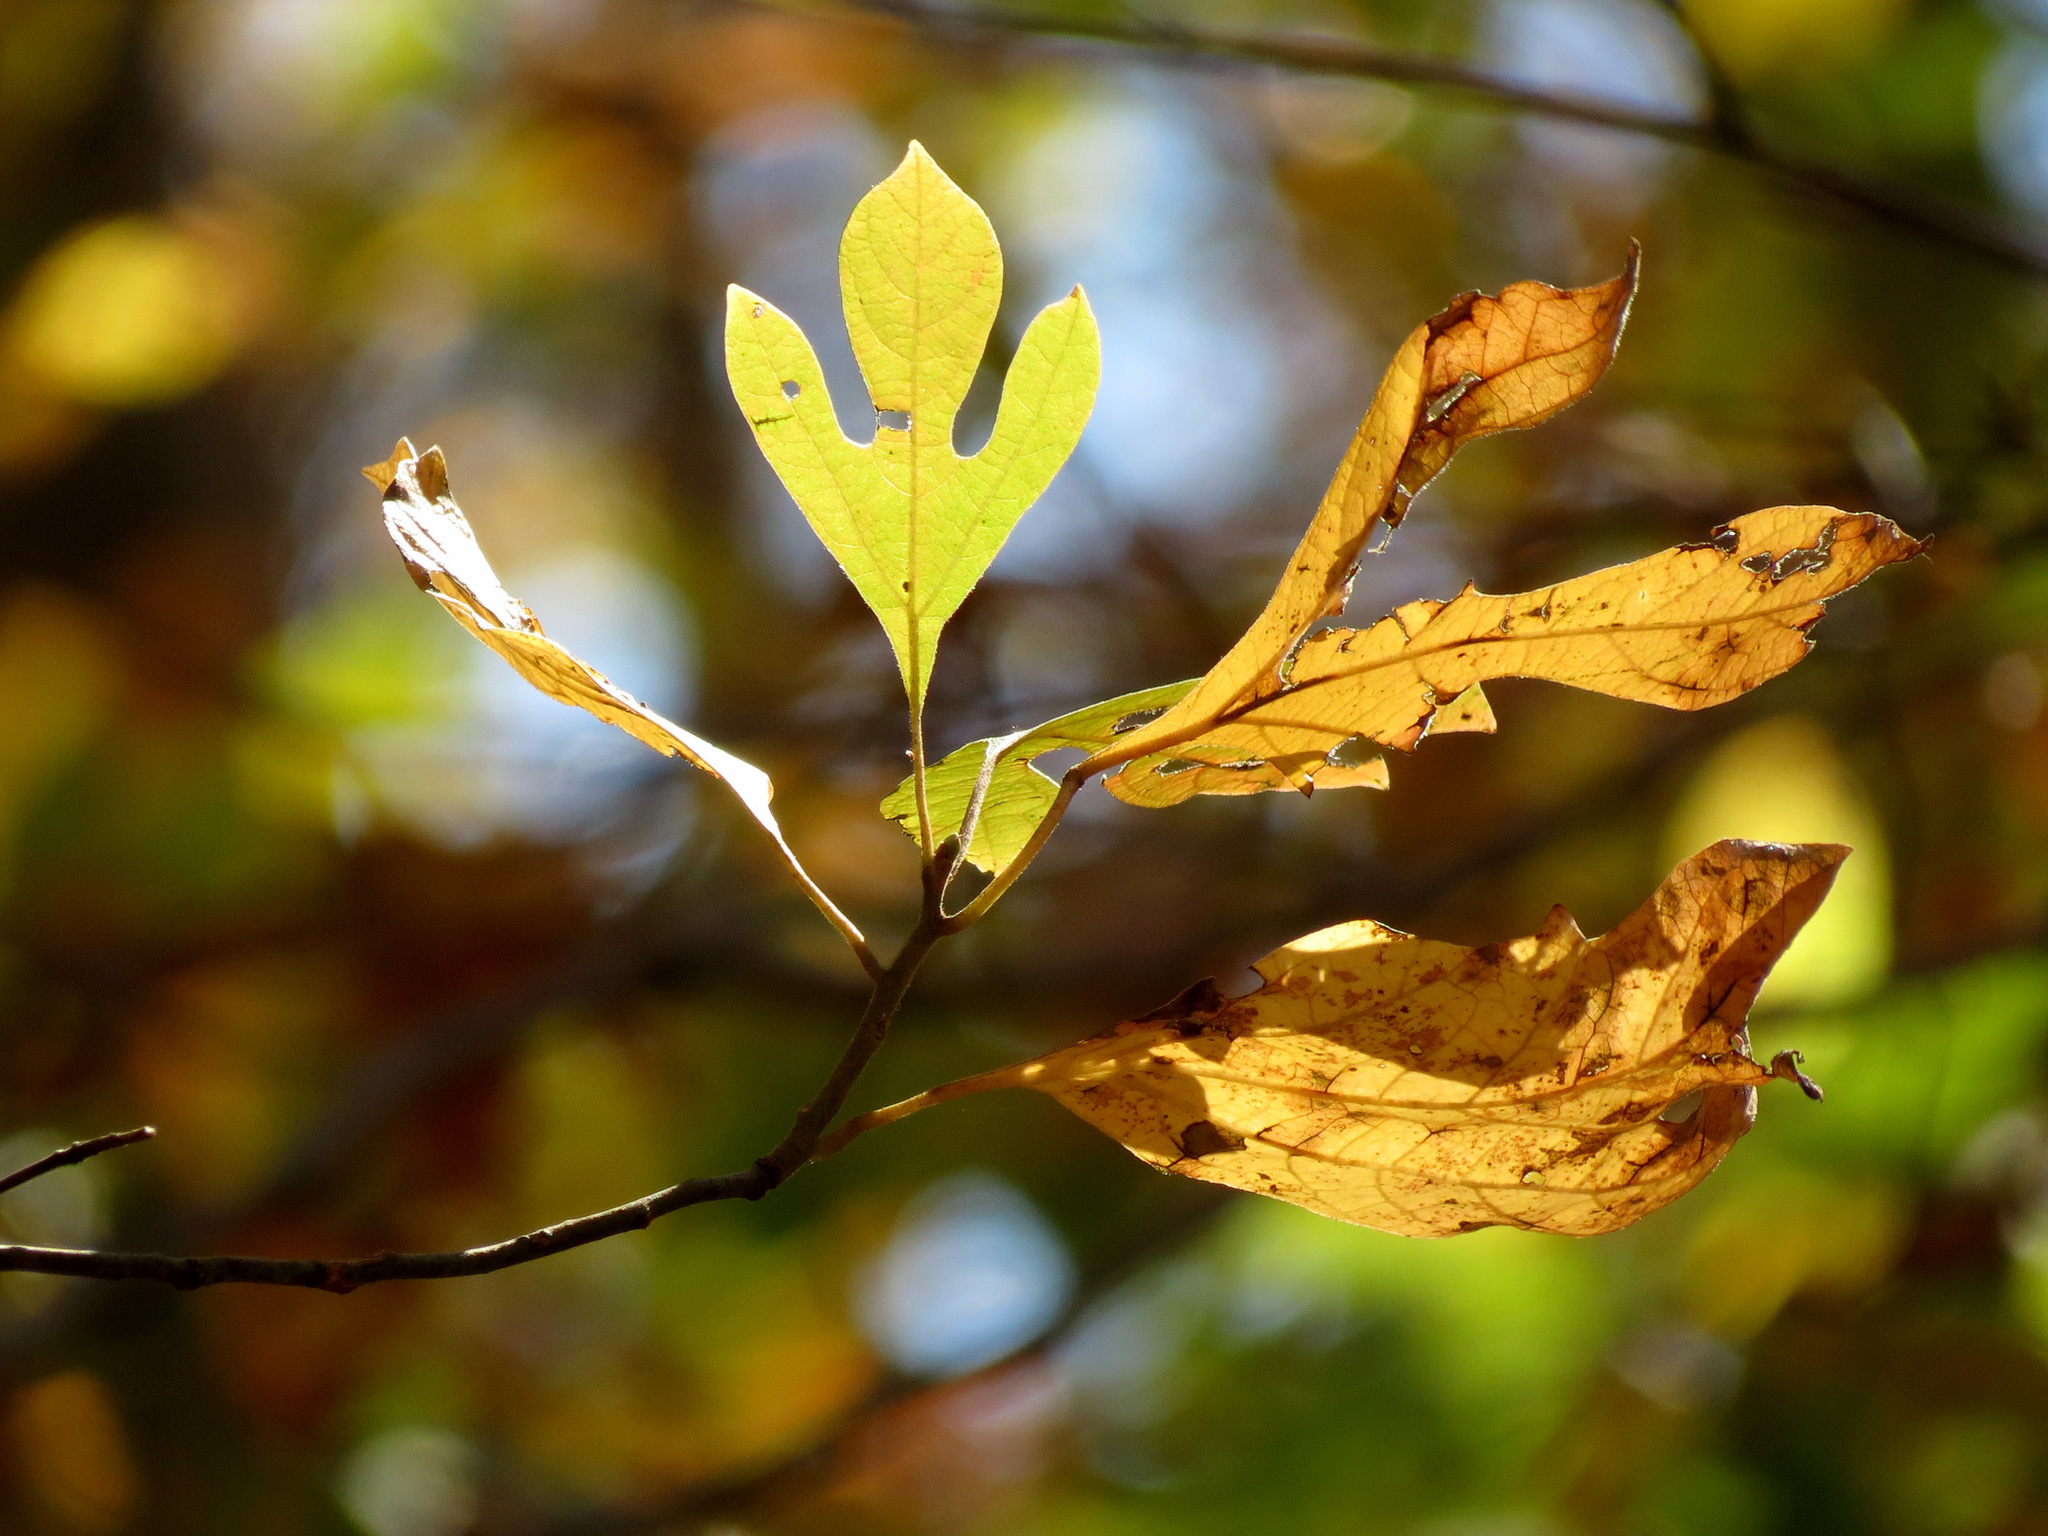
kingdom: Plantae
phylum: Tracheophyta
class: Magnoliopsida
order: Laurales
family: Lauraceae
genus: Sassafras
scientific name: Sassafras albidum
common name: Sassafras
